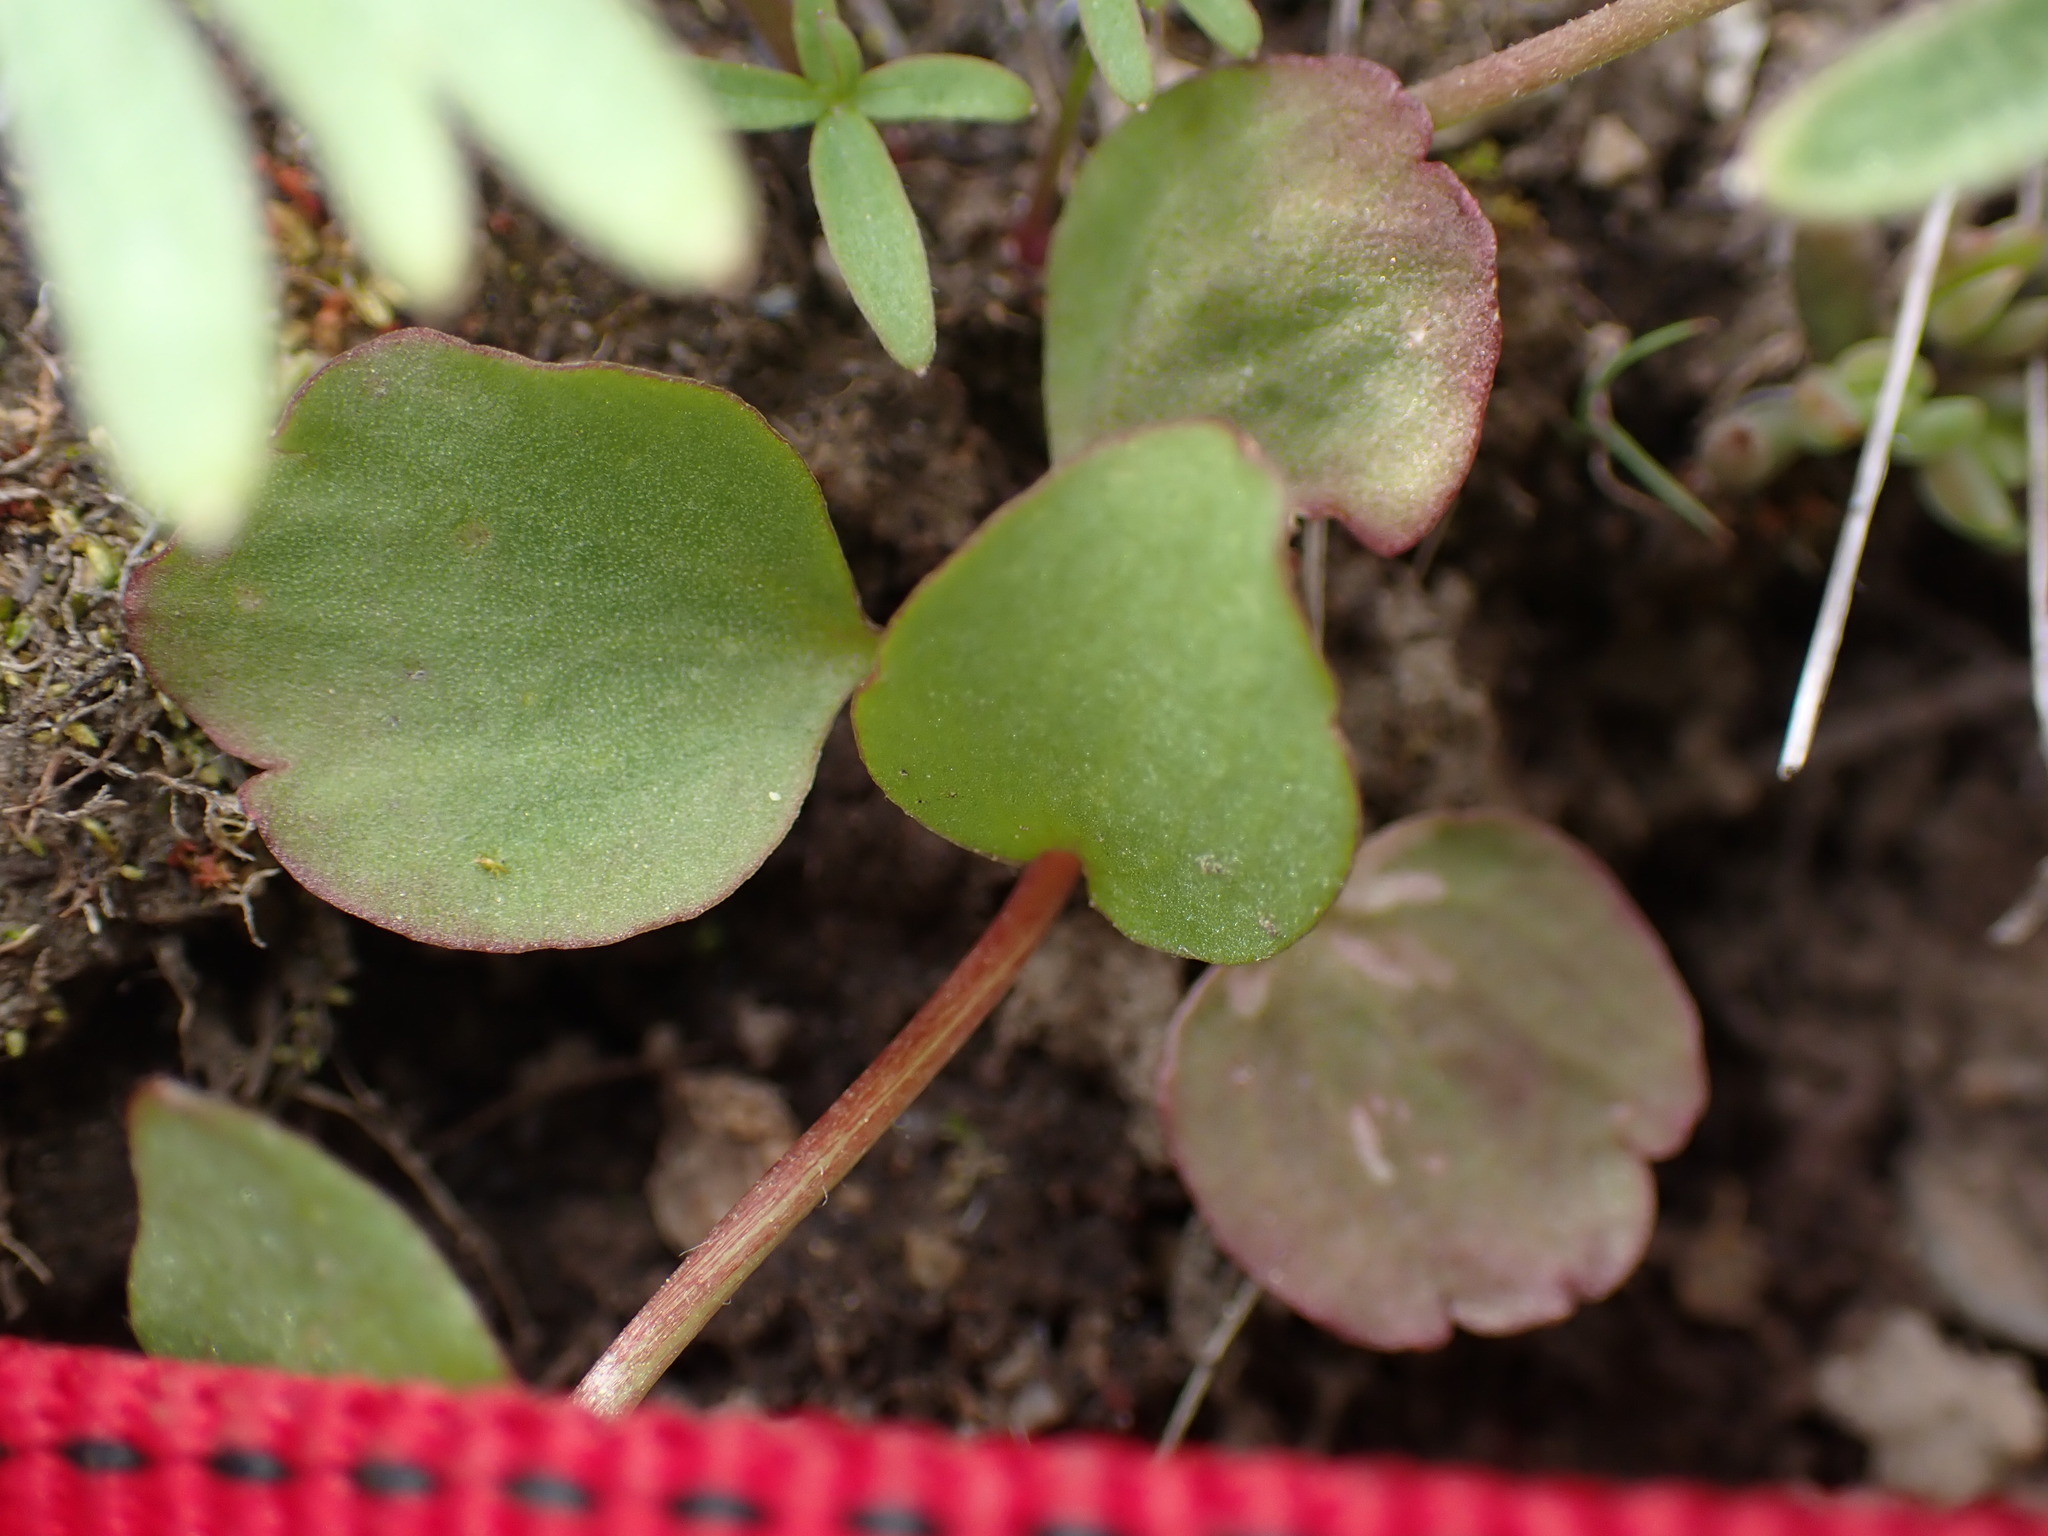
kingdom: Plantae
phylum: Tracheophyta
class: Magnoliopsida
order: Ranunculales
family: Ranunculaceae
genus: Ranunculus
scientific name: Ranunculus glaberrimus
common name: Sagebrush buttercup
